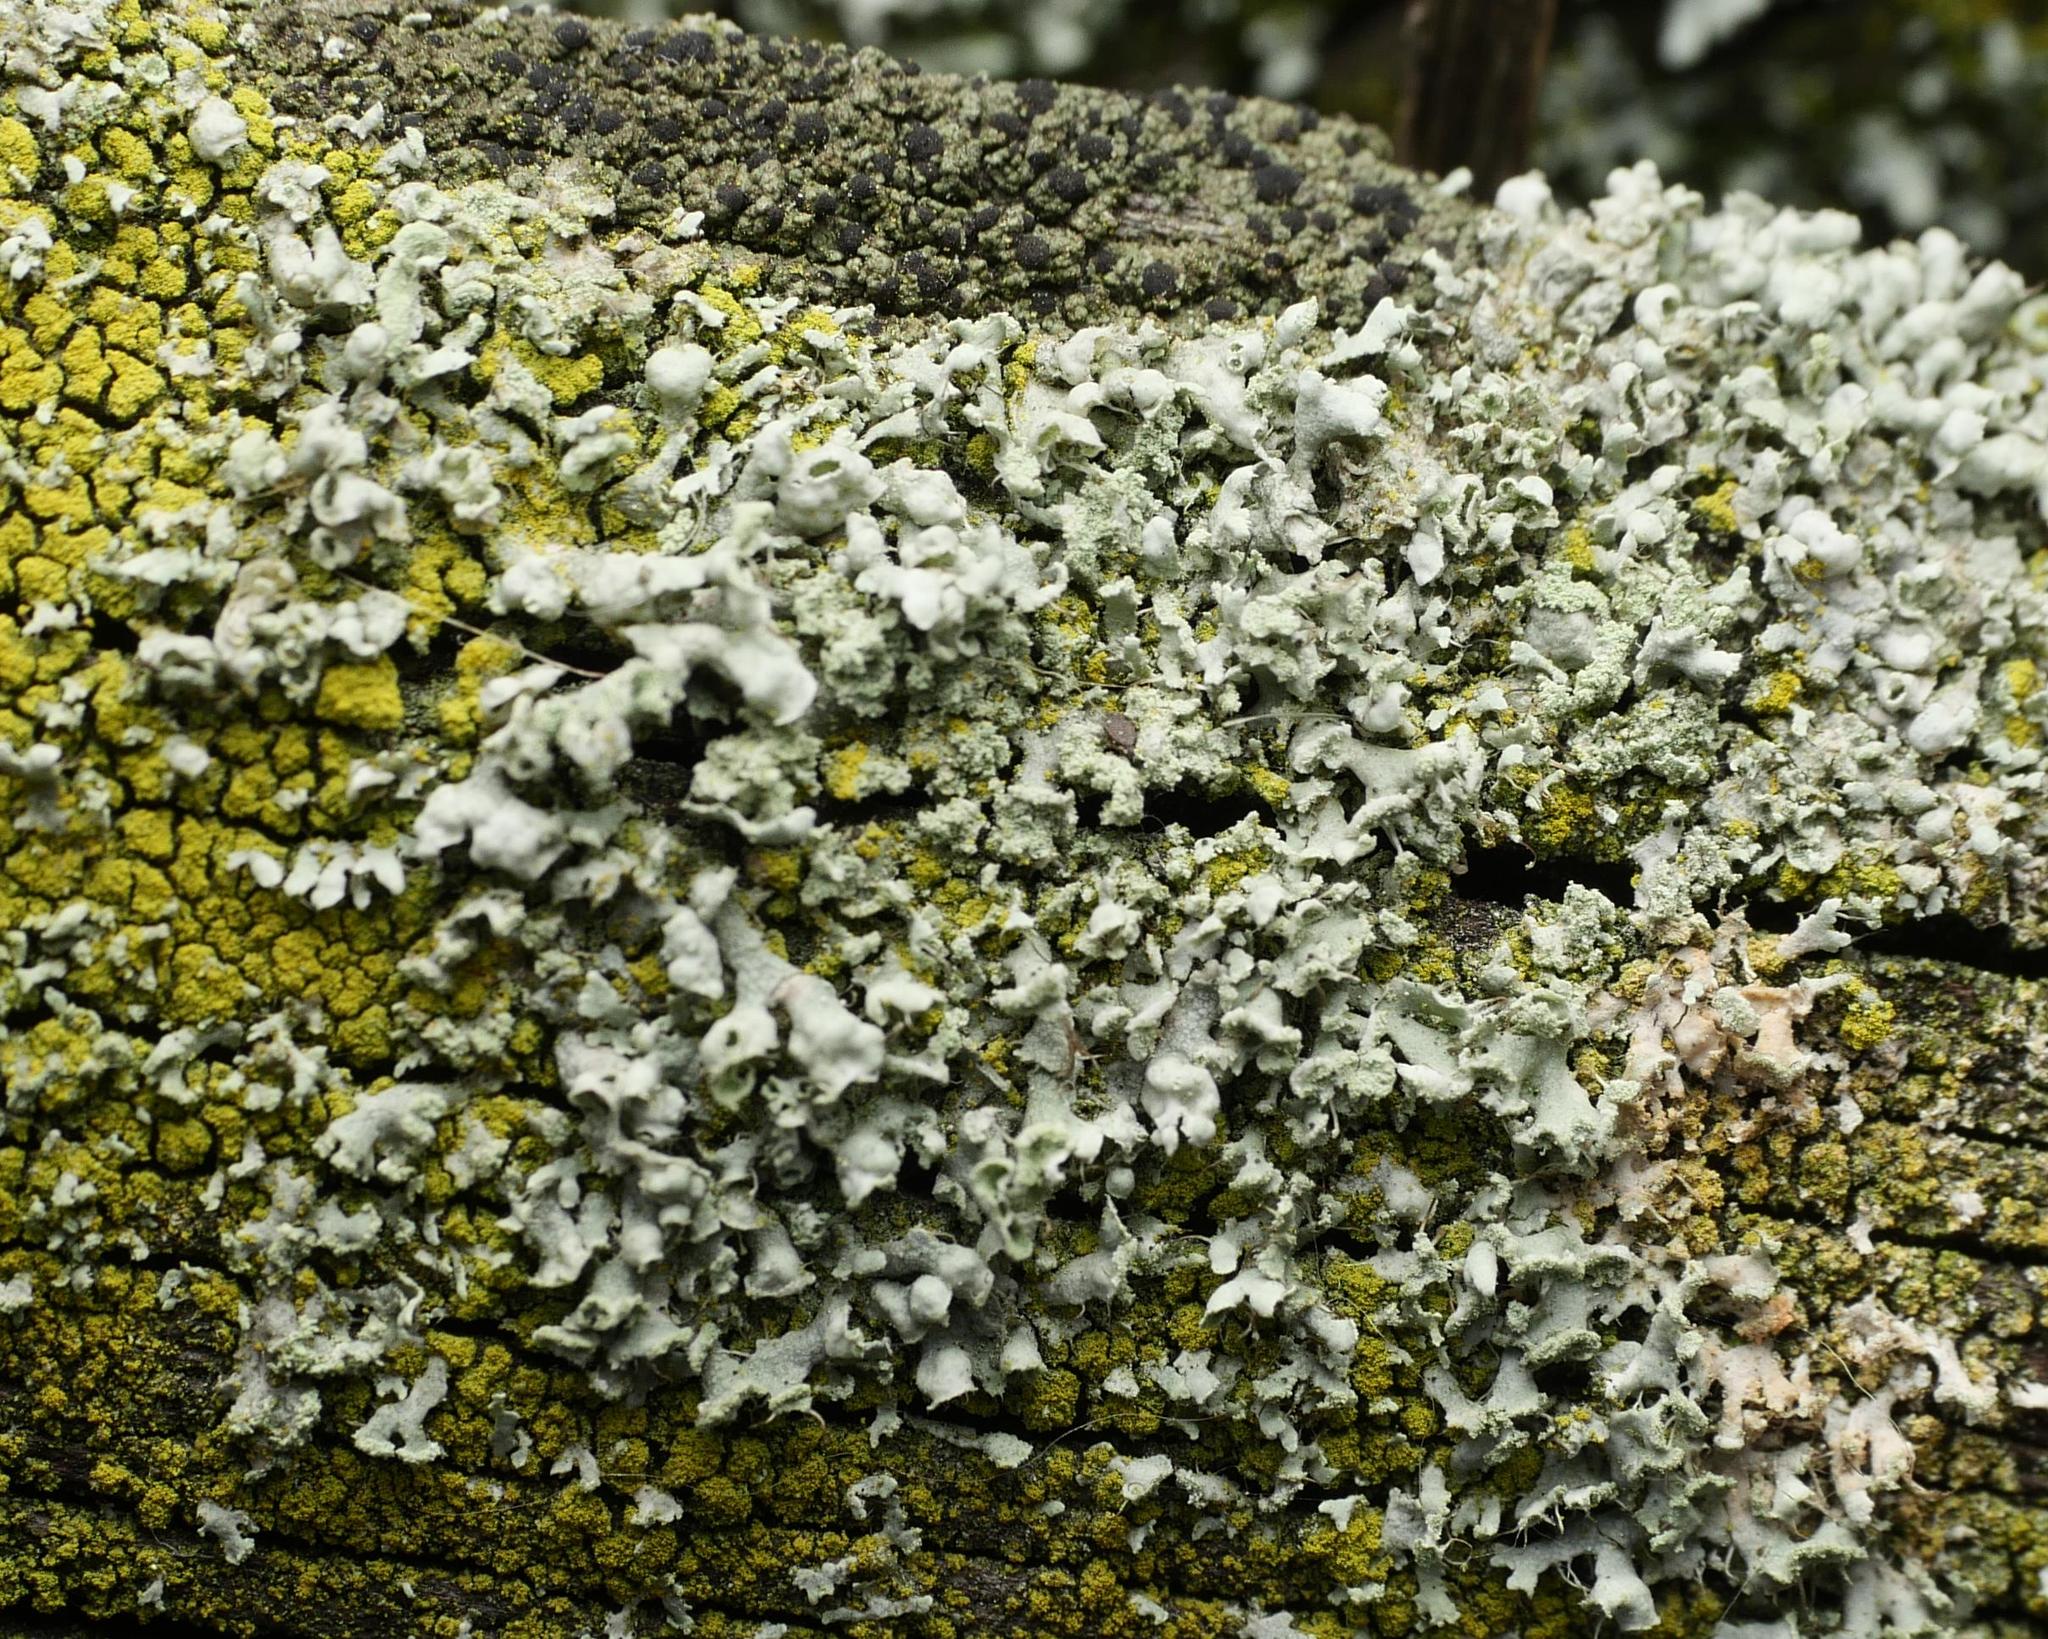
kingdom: Fungi
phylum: Ascomycota
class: Lecanoromycetes
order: Caliciales
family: Physciaceae
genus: Physcia
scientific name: Physcia adscendens
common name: Hooded rosette lichen
